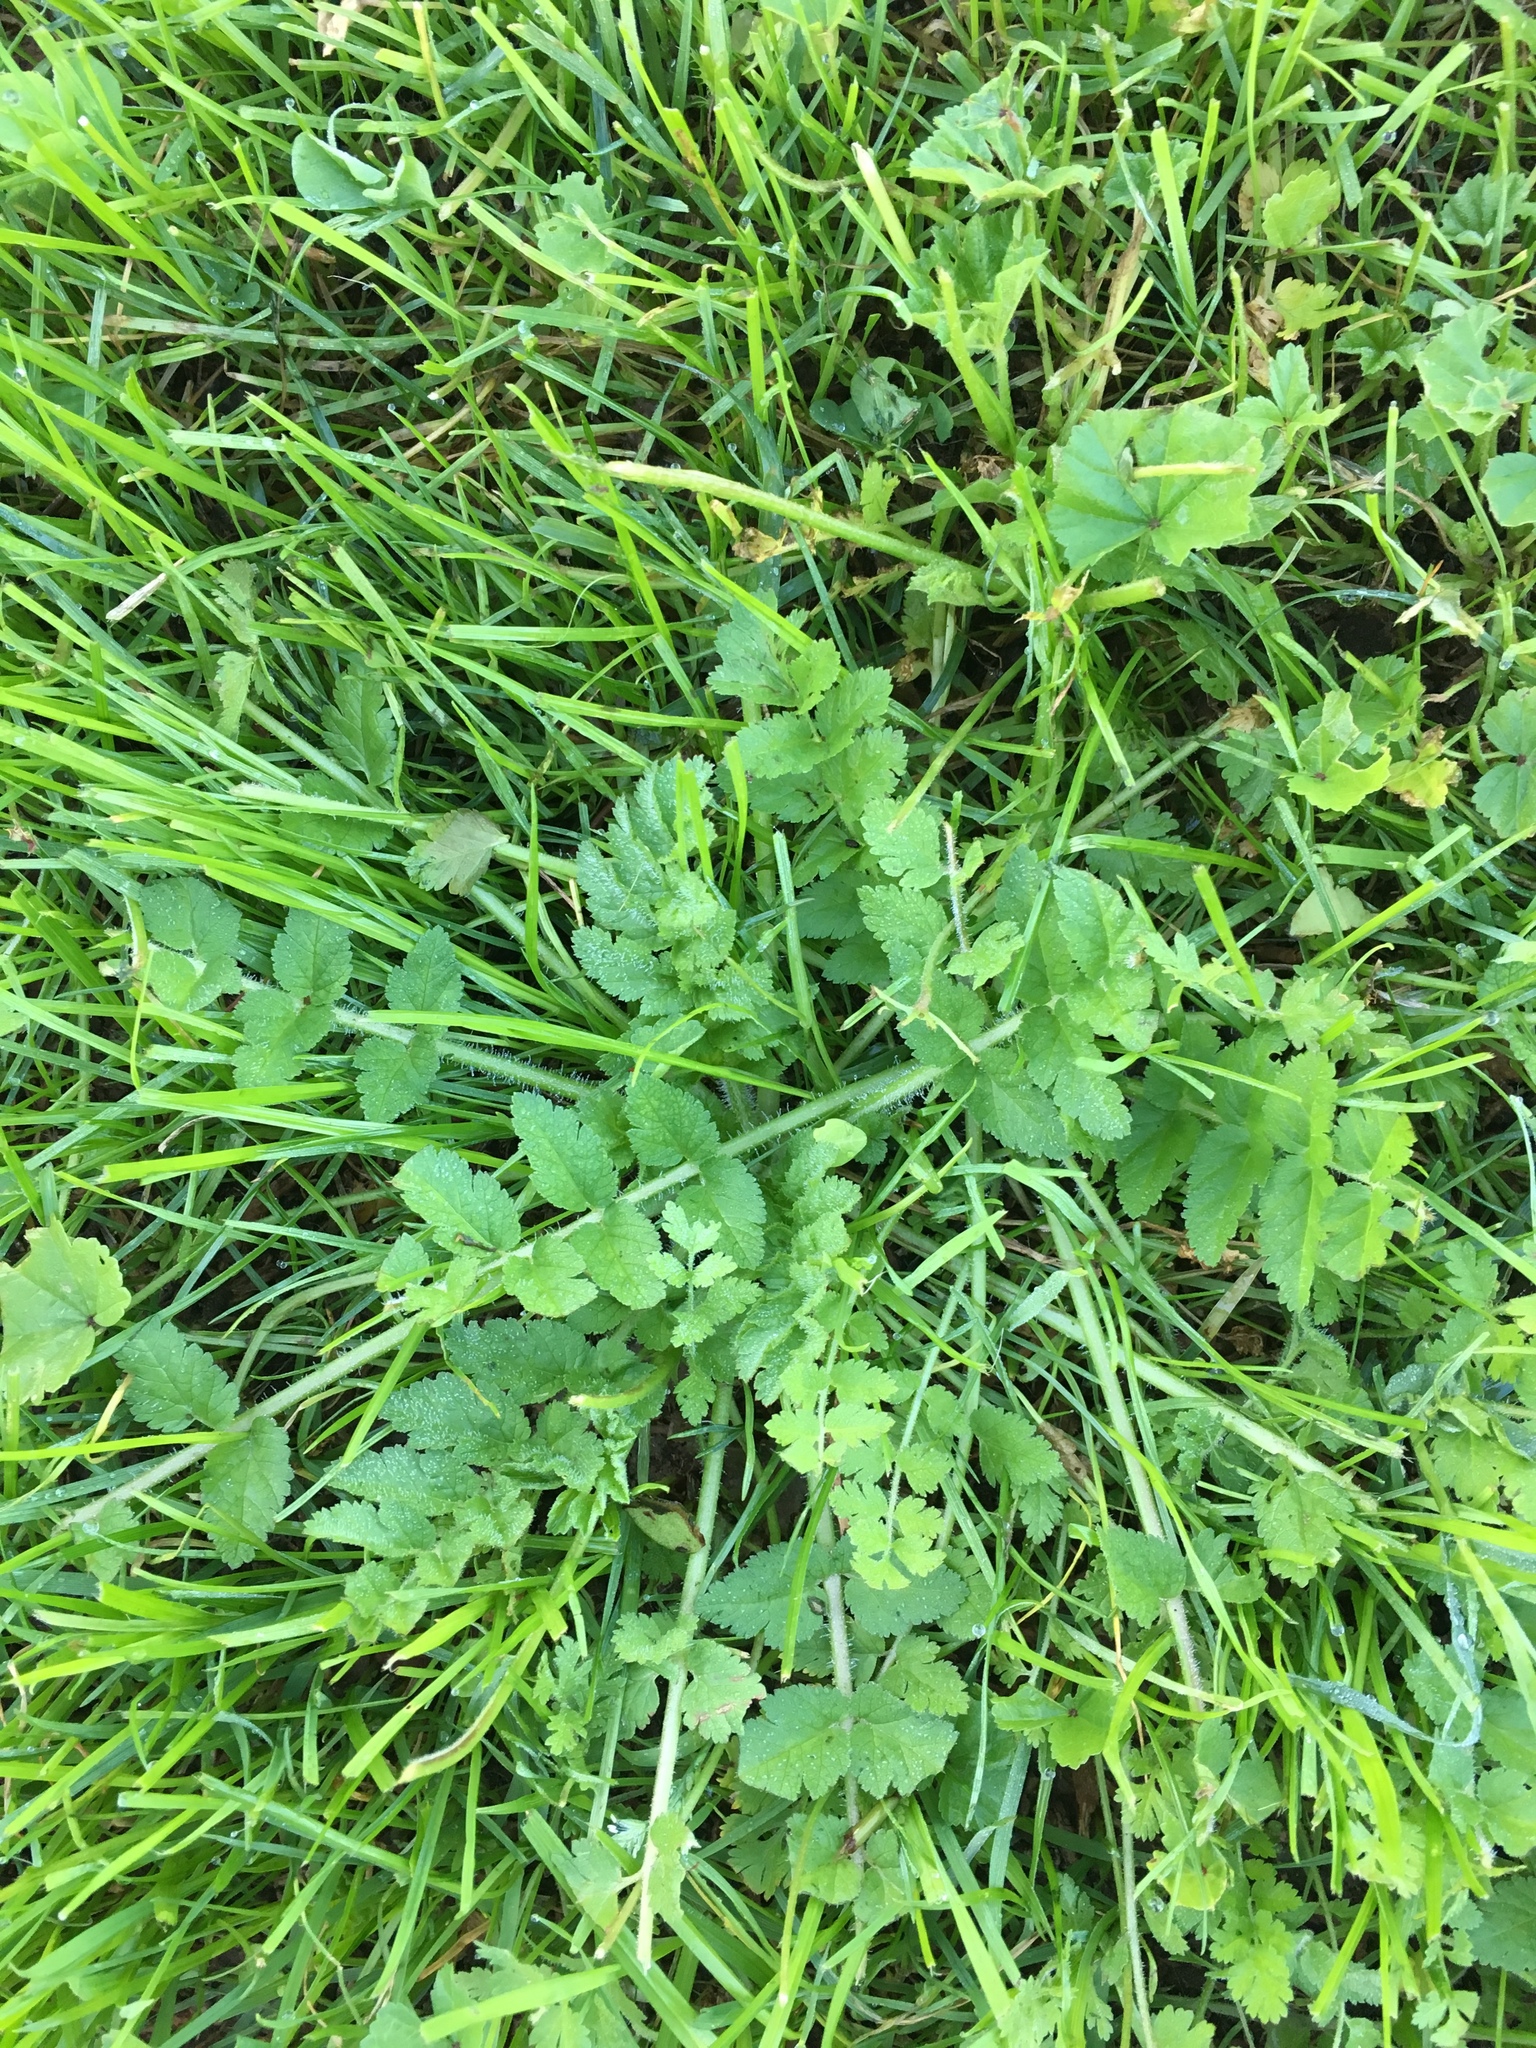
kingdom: Plantae
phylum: Tracheophyta
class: Magnoliopsida
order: Geraniales
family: Geraniaceae
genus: Erodium
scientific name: Erodium moschatum
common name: Musk stork's-bill
